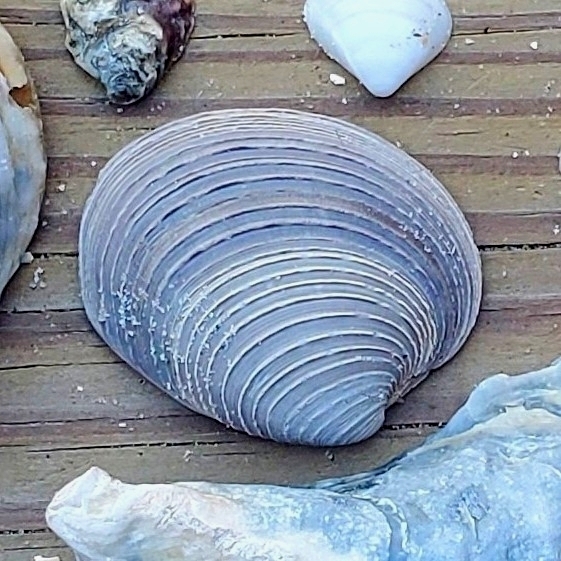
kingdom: Animalia
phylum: Mollusca
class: Bivalvia
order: Venerida
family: Veneridae
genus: Mercenaria
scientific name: Mercenaria campechiensis
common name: Südliche quahog-muschel
